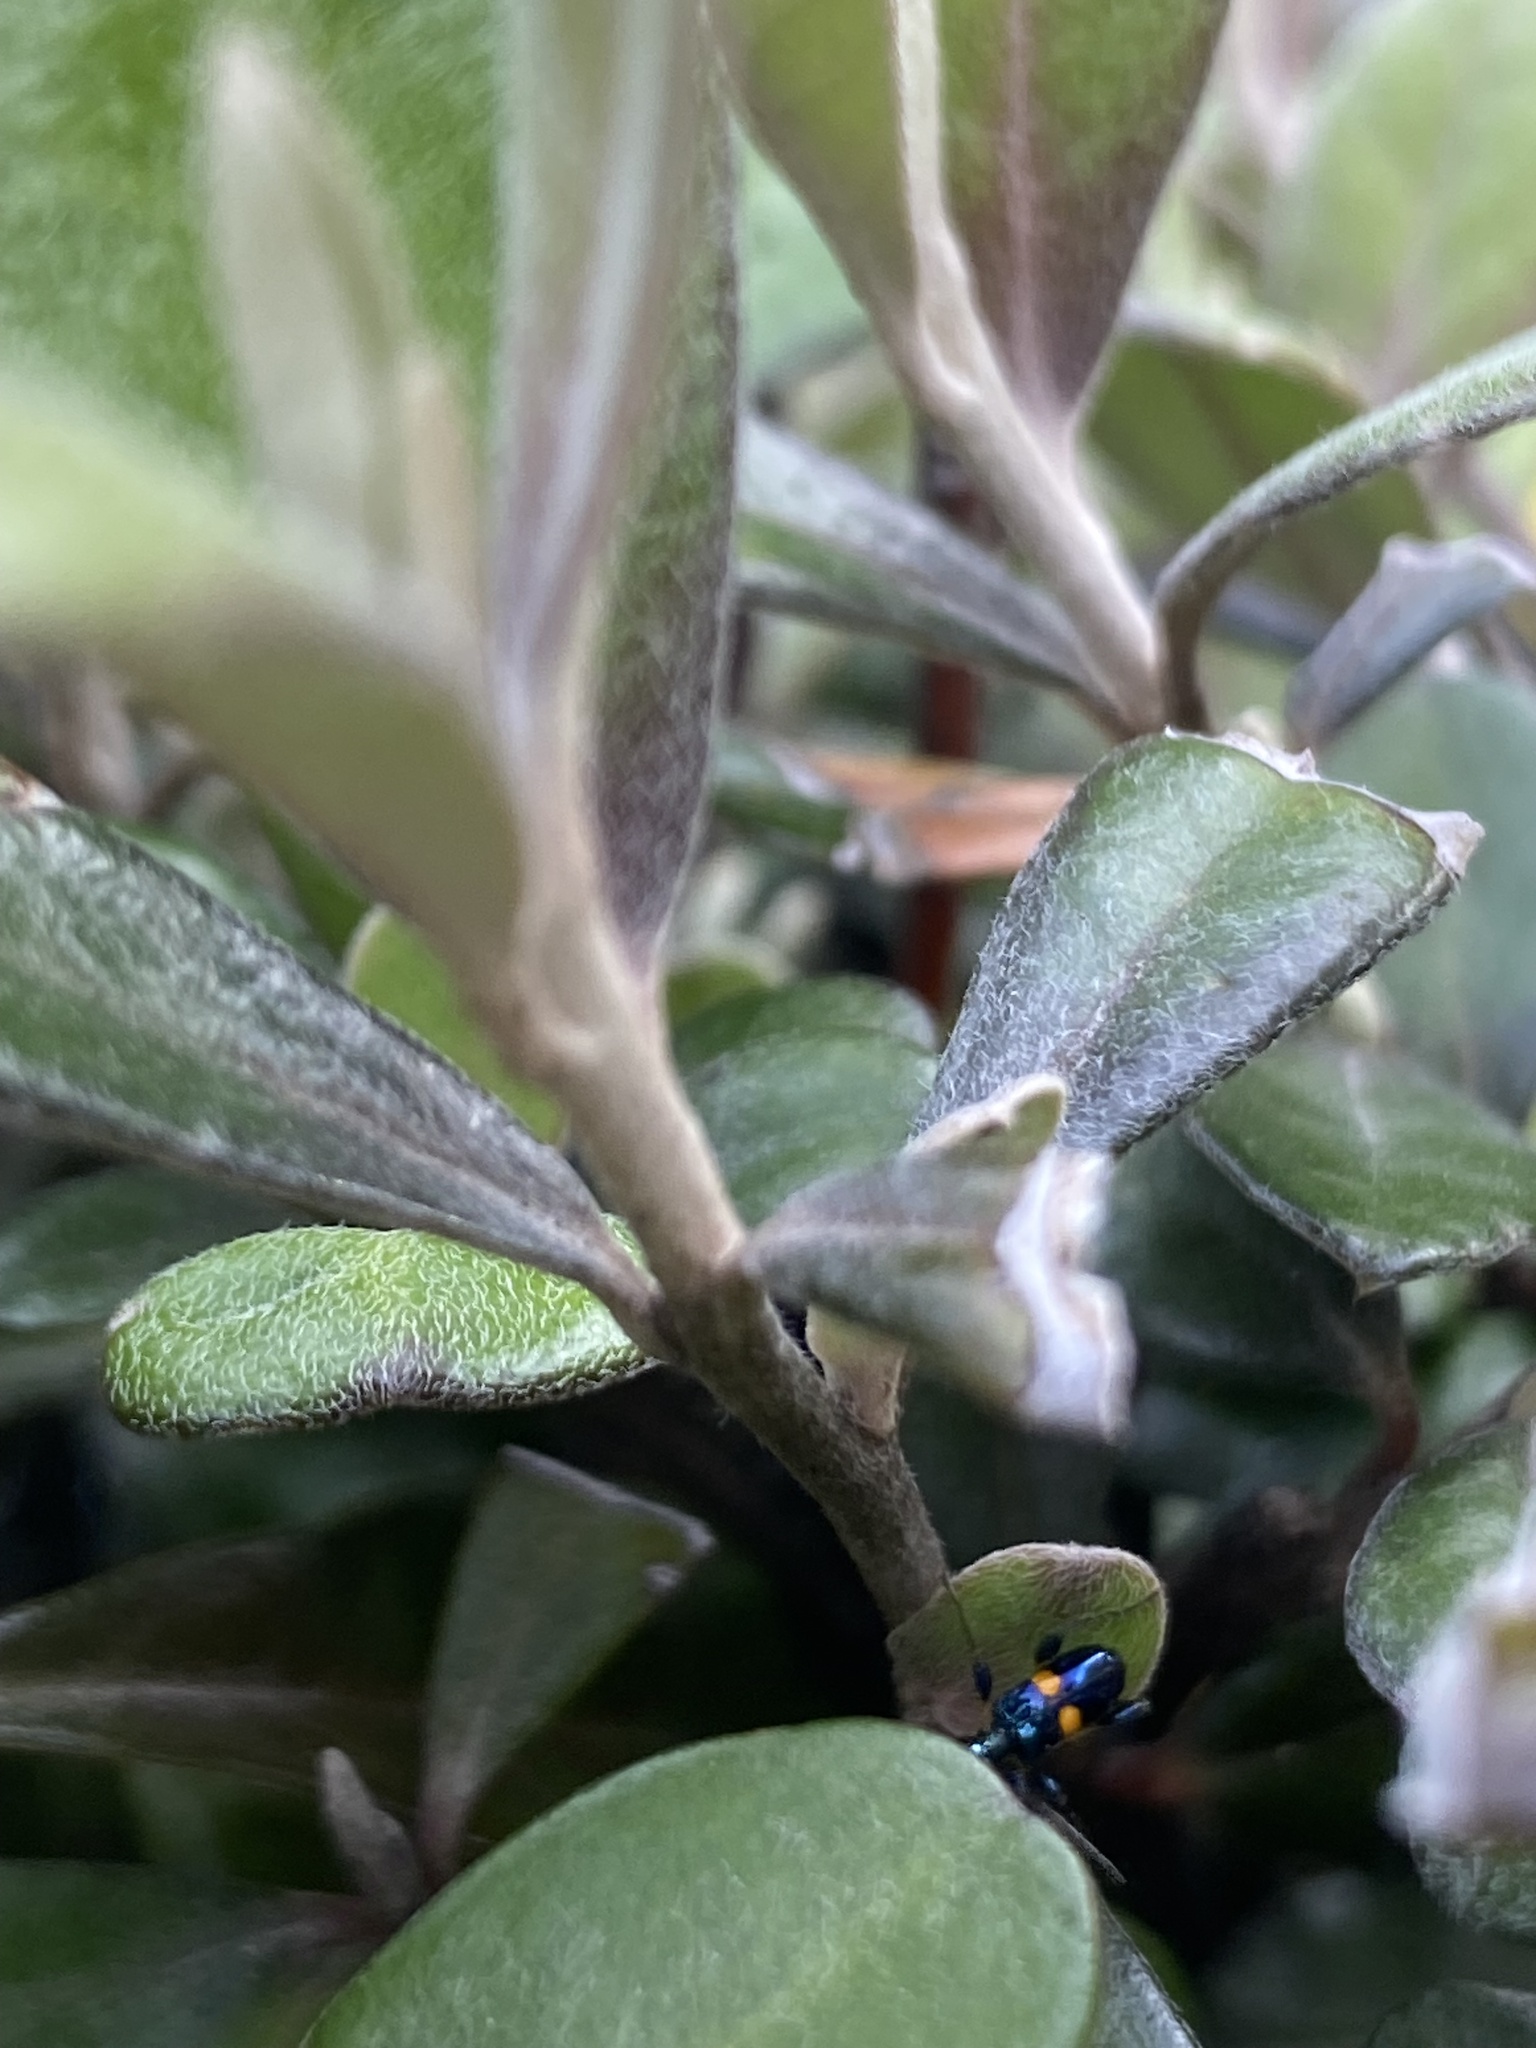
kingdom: Animalia
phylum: Arthropoda
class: Insecta
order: Coleoptera
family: Cerambycidae
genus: Zorion
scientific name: Zorion guttigerum
